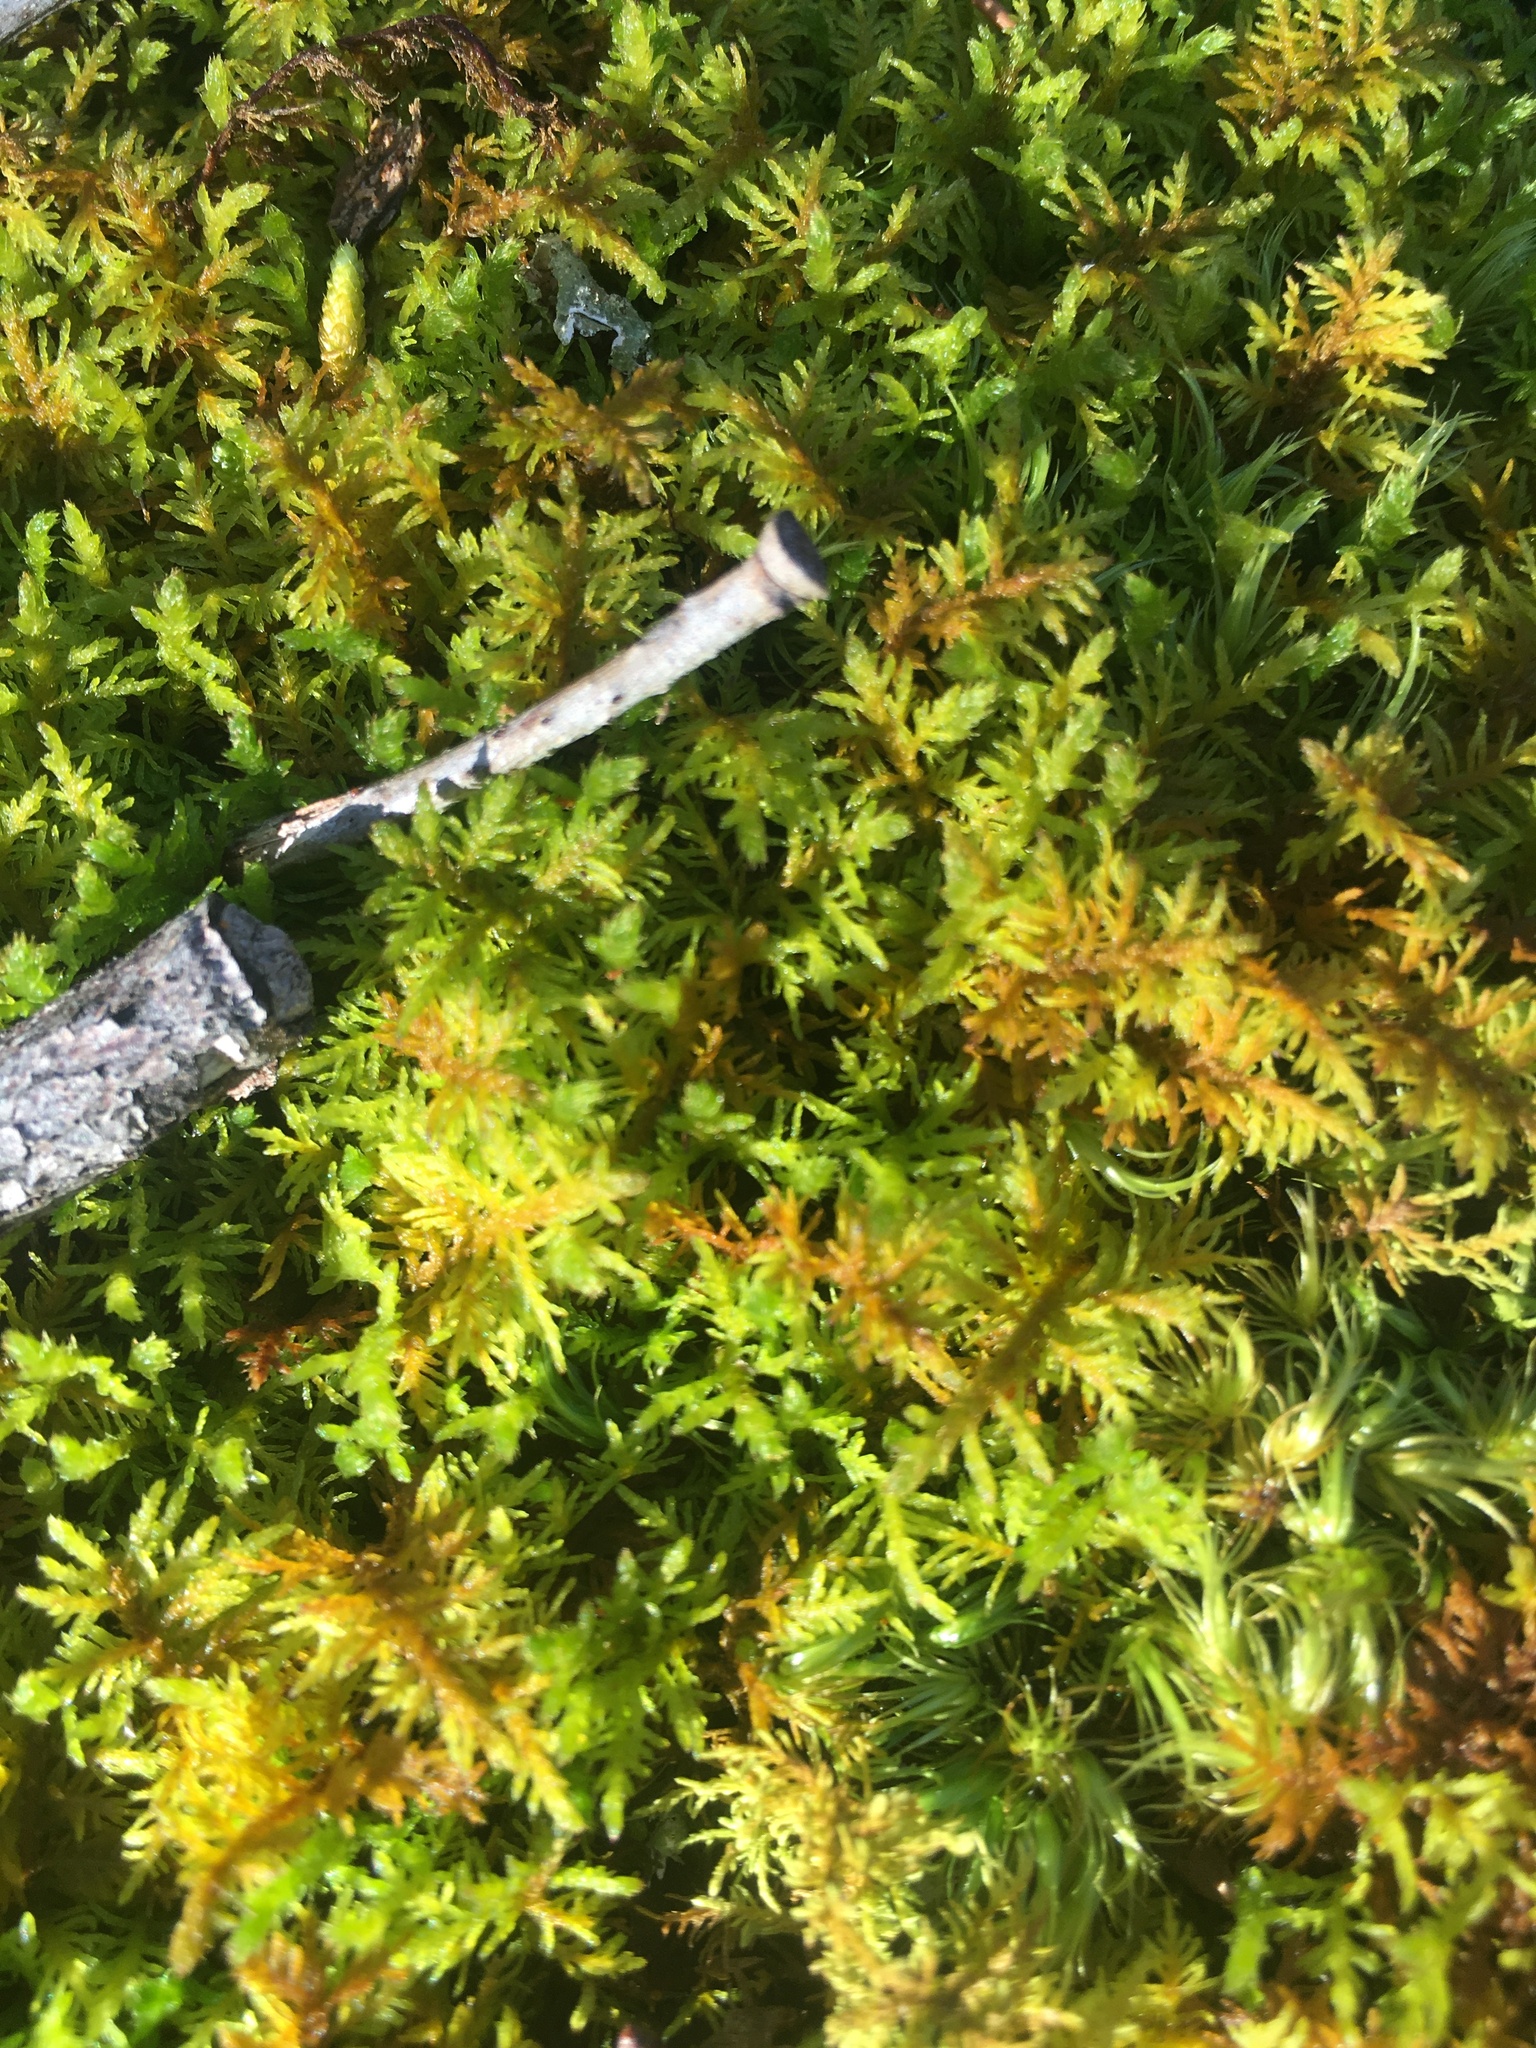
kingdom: Plantae
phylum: Bryophyta
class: Bryopsida
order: Hypnales
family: Thuidiaceae
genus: Thuidium
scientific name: Thuidium delicatulum
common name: Delicate fern moss
